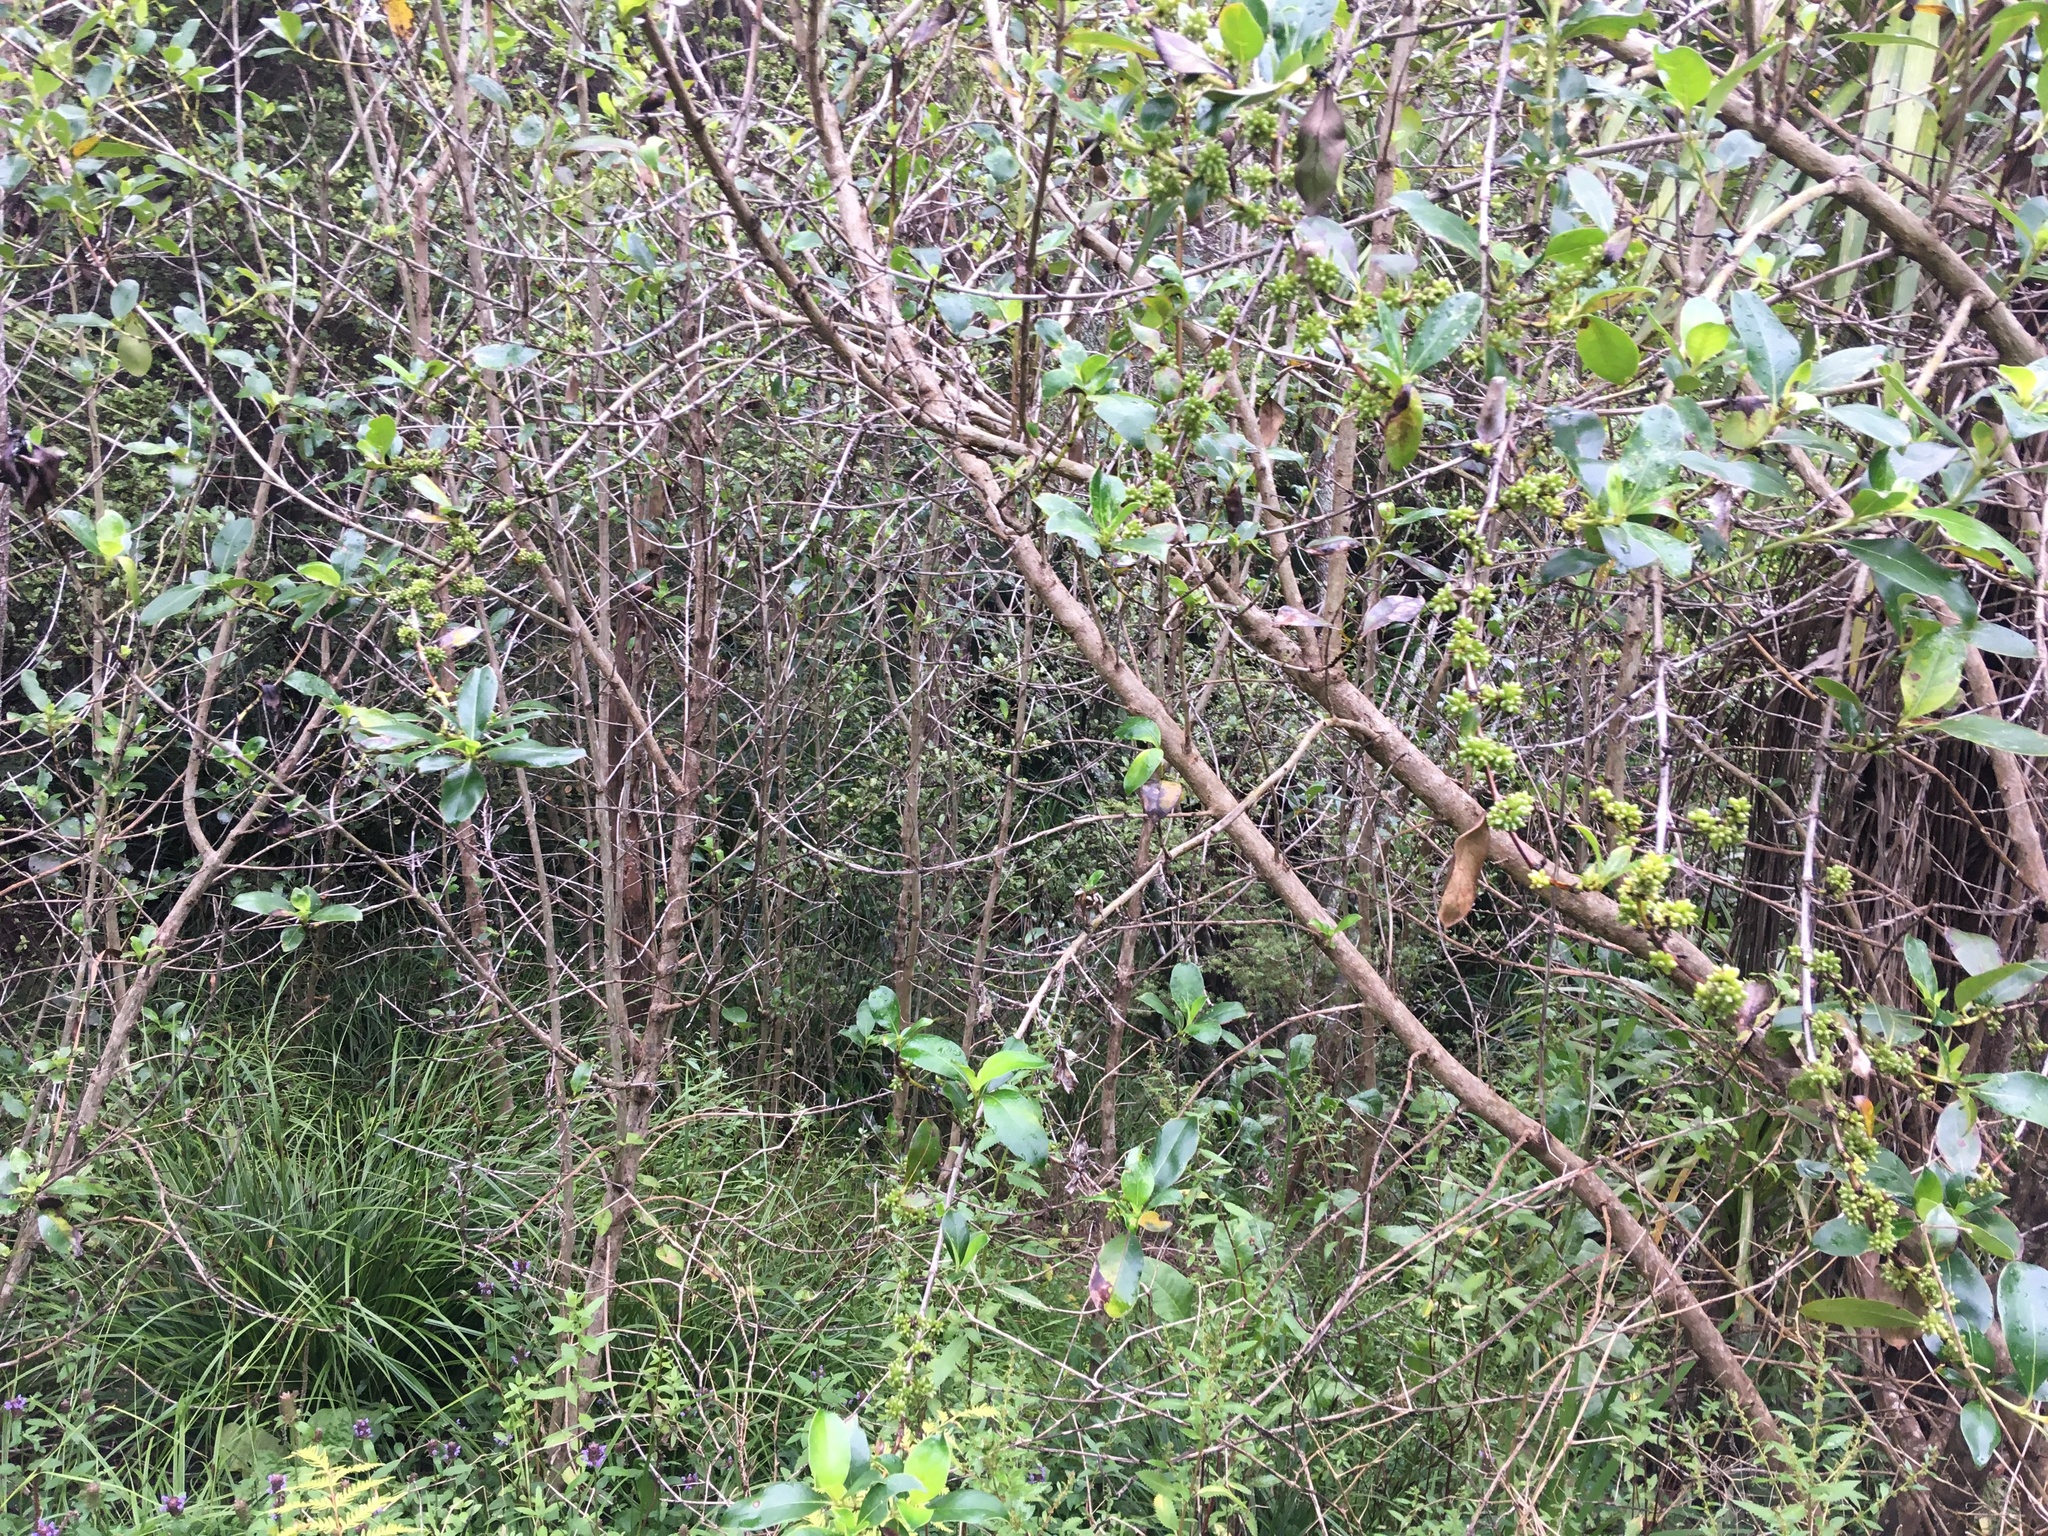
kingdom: Plantae
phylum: Tracheophyta
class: Magnoliopsida
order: Gentianales
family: Rubiaceae
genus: Coprosma
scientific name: Coprosma robusta
